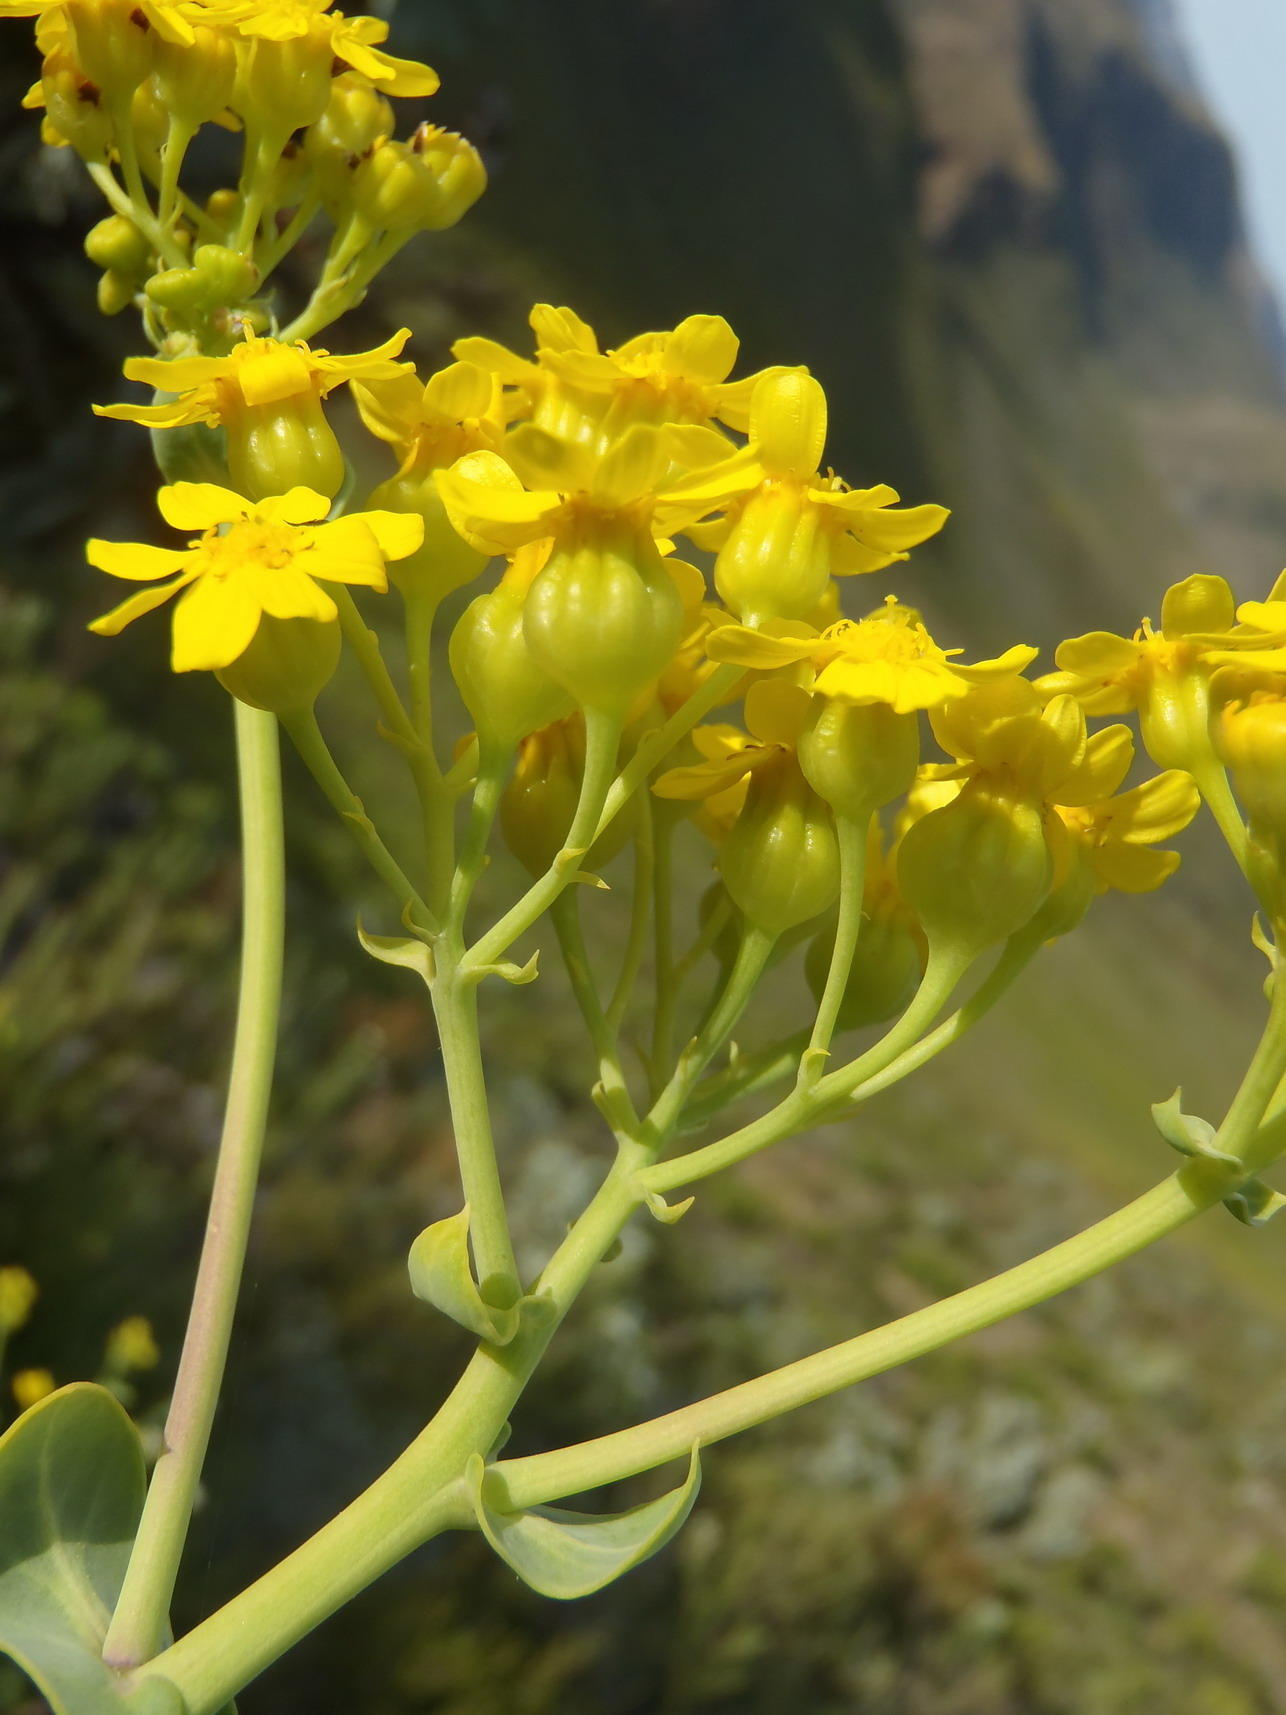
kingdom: Plantae
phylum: Tracheophyta
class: Magnoliopsida
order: Asterales
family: Asteraceae
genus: Othonna
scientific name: Othonna parviflora
